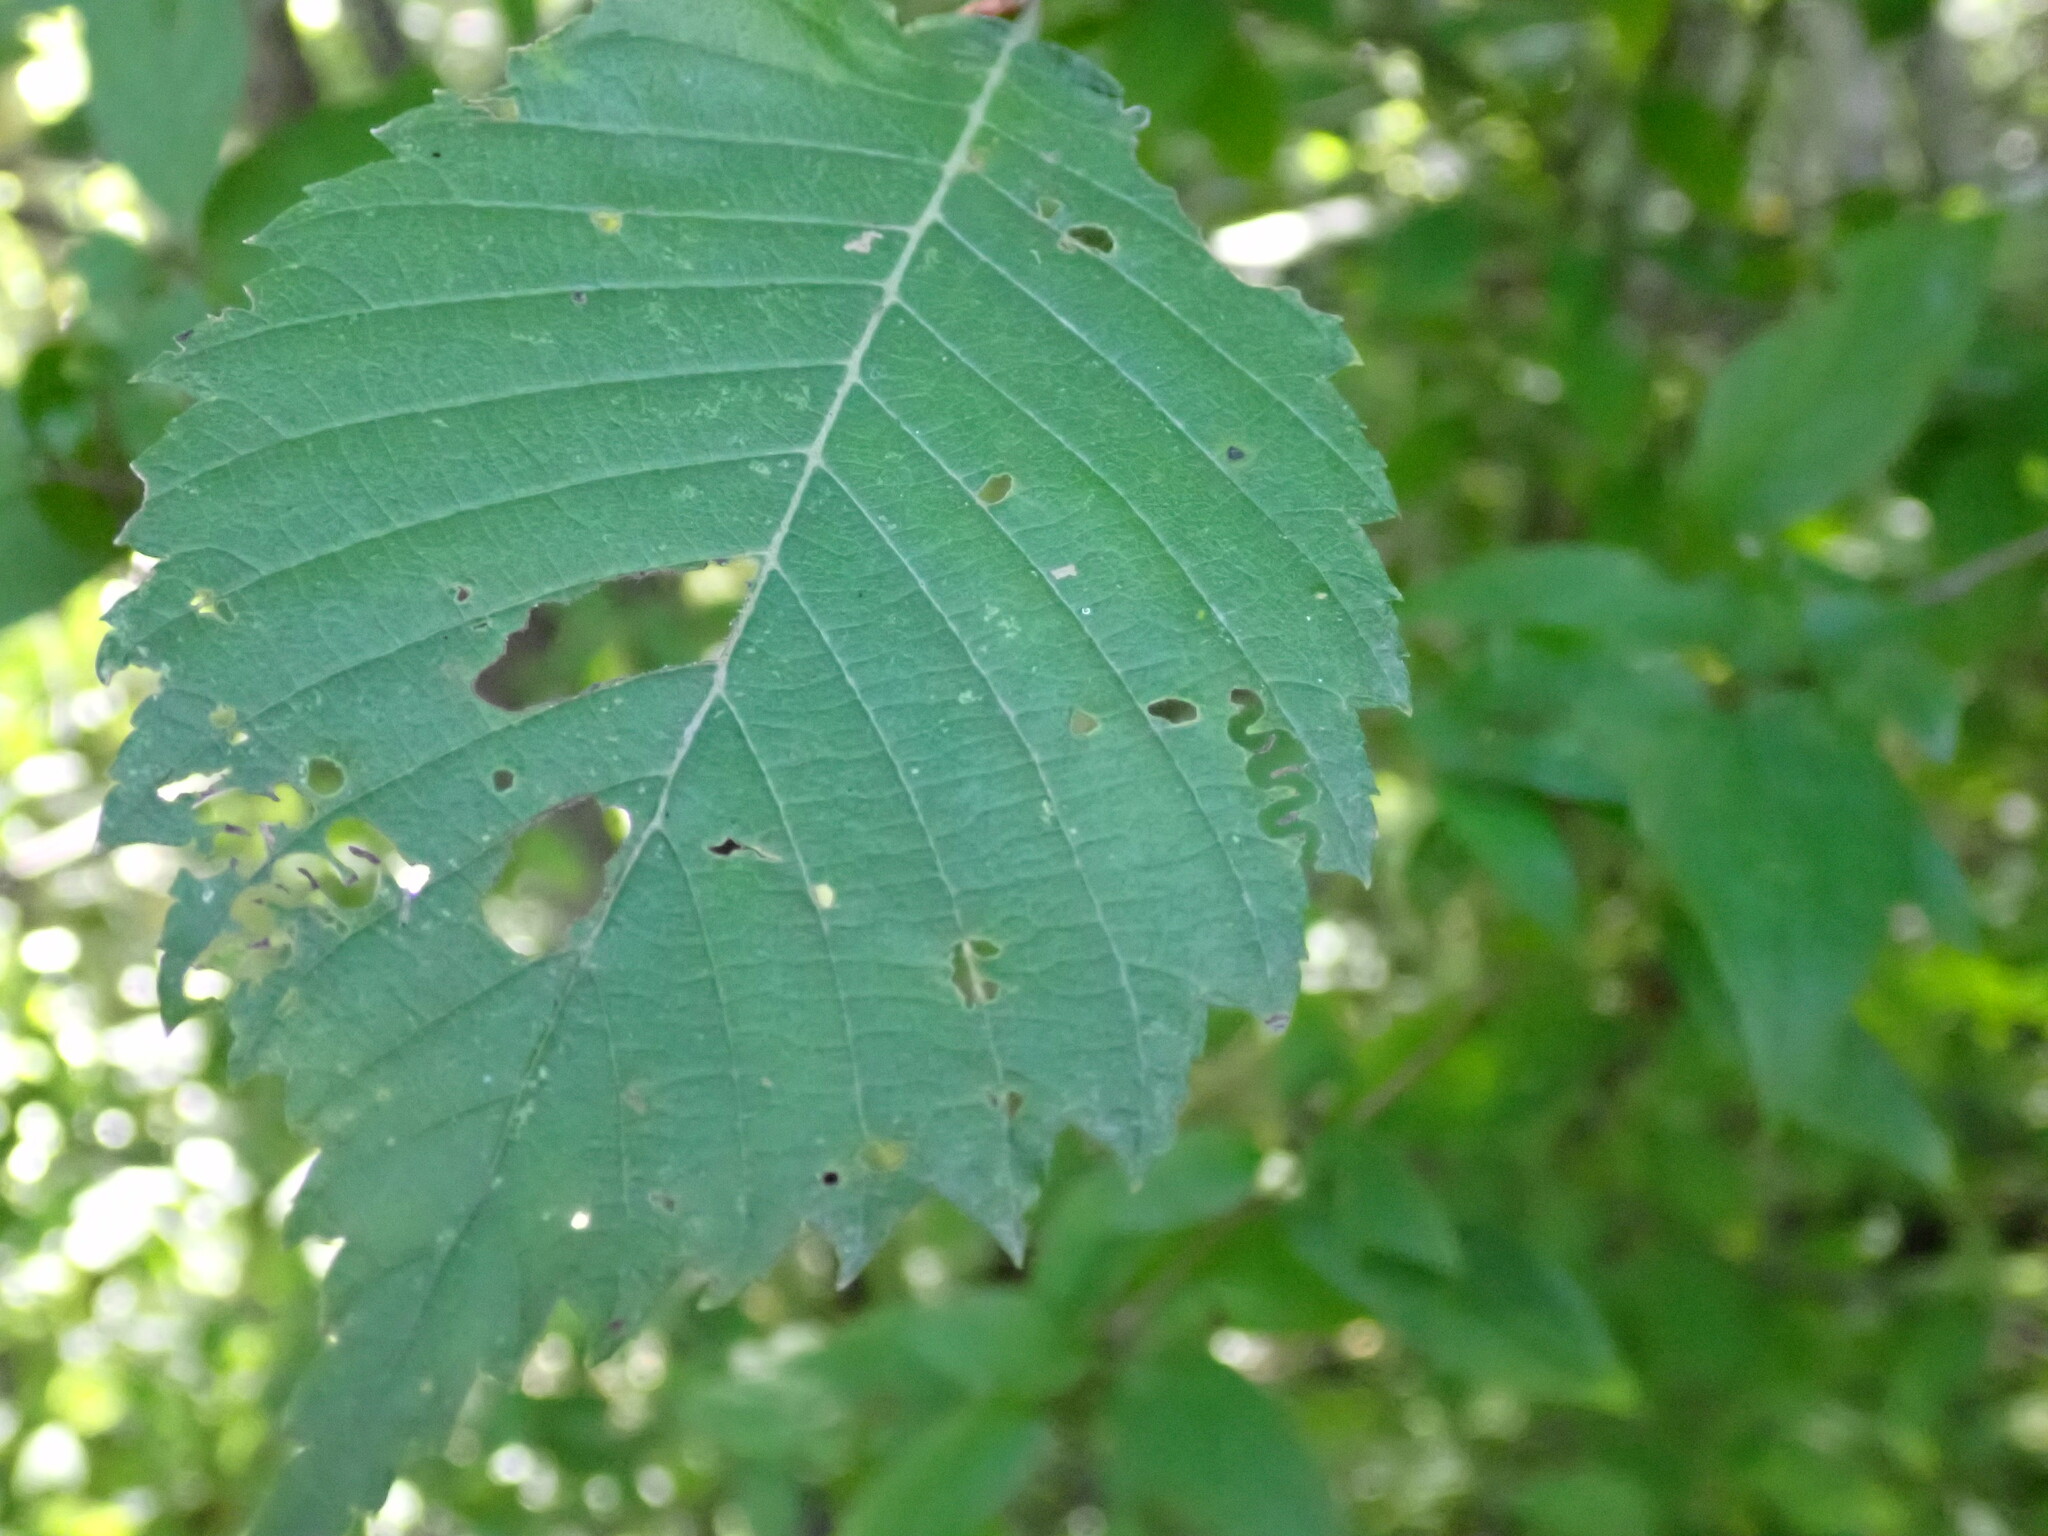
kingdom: Animalia
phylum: Arthropoda
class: Insecta
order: Hymenoptera
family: Argidae
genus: Aproceros
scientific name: Aproceros leucopoda
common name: Zig-zag elm sawfly
